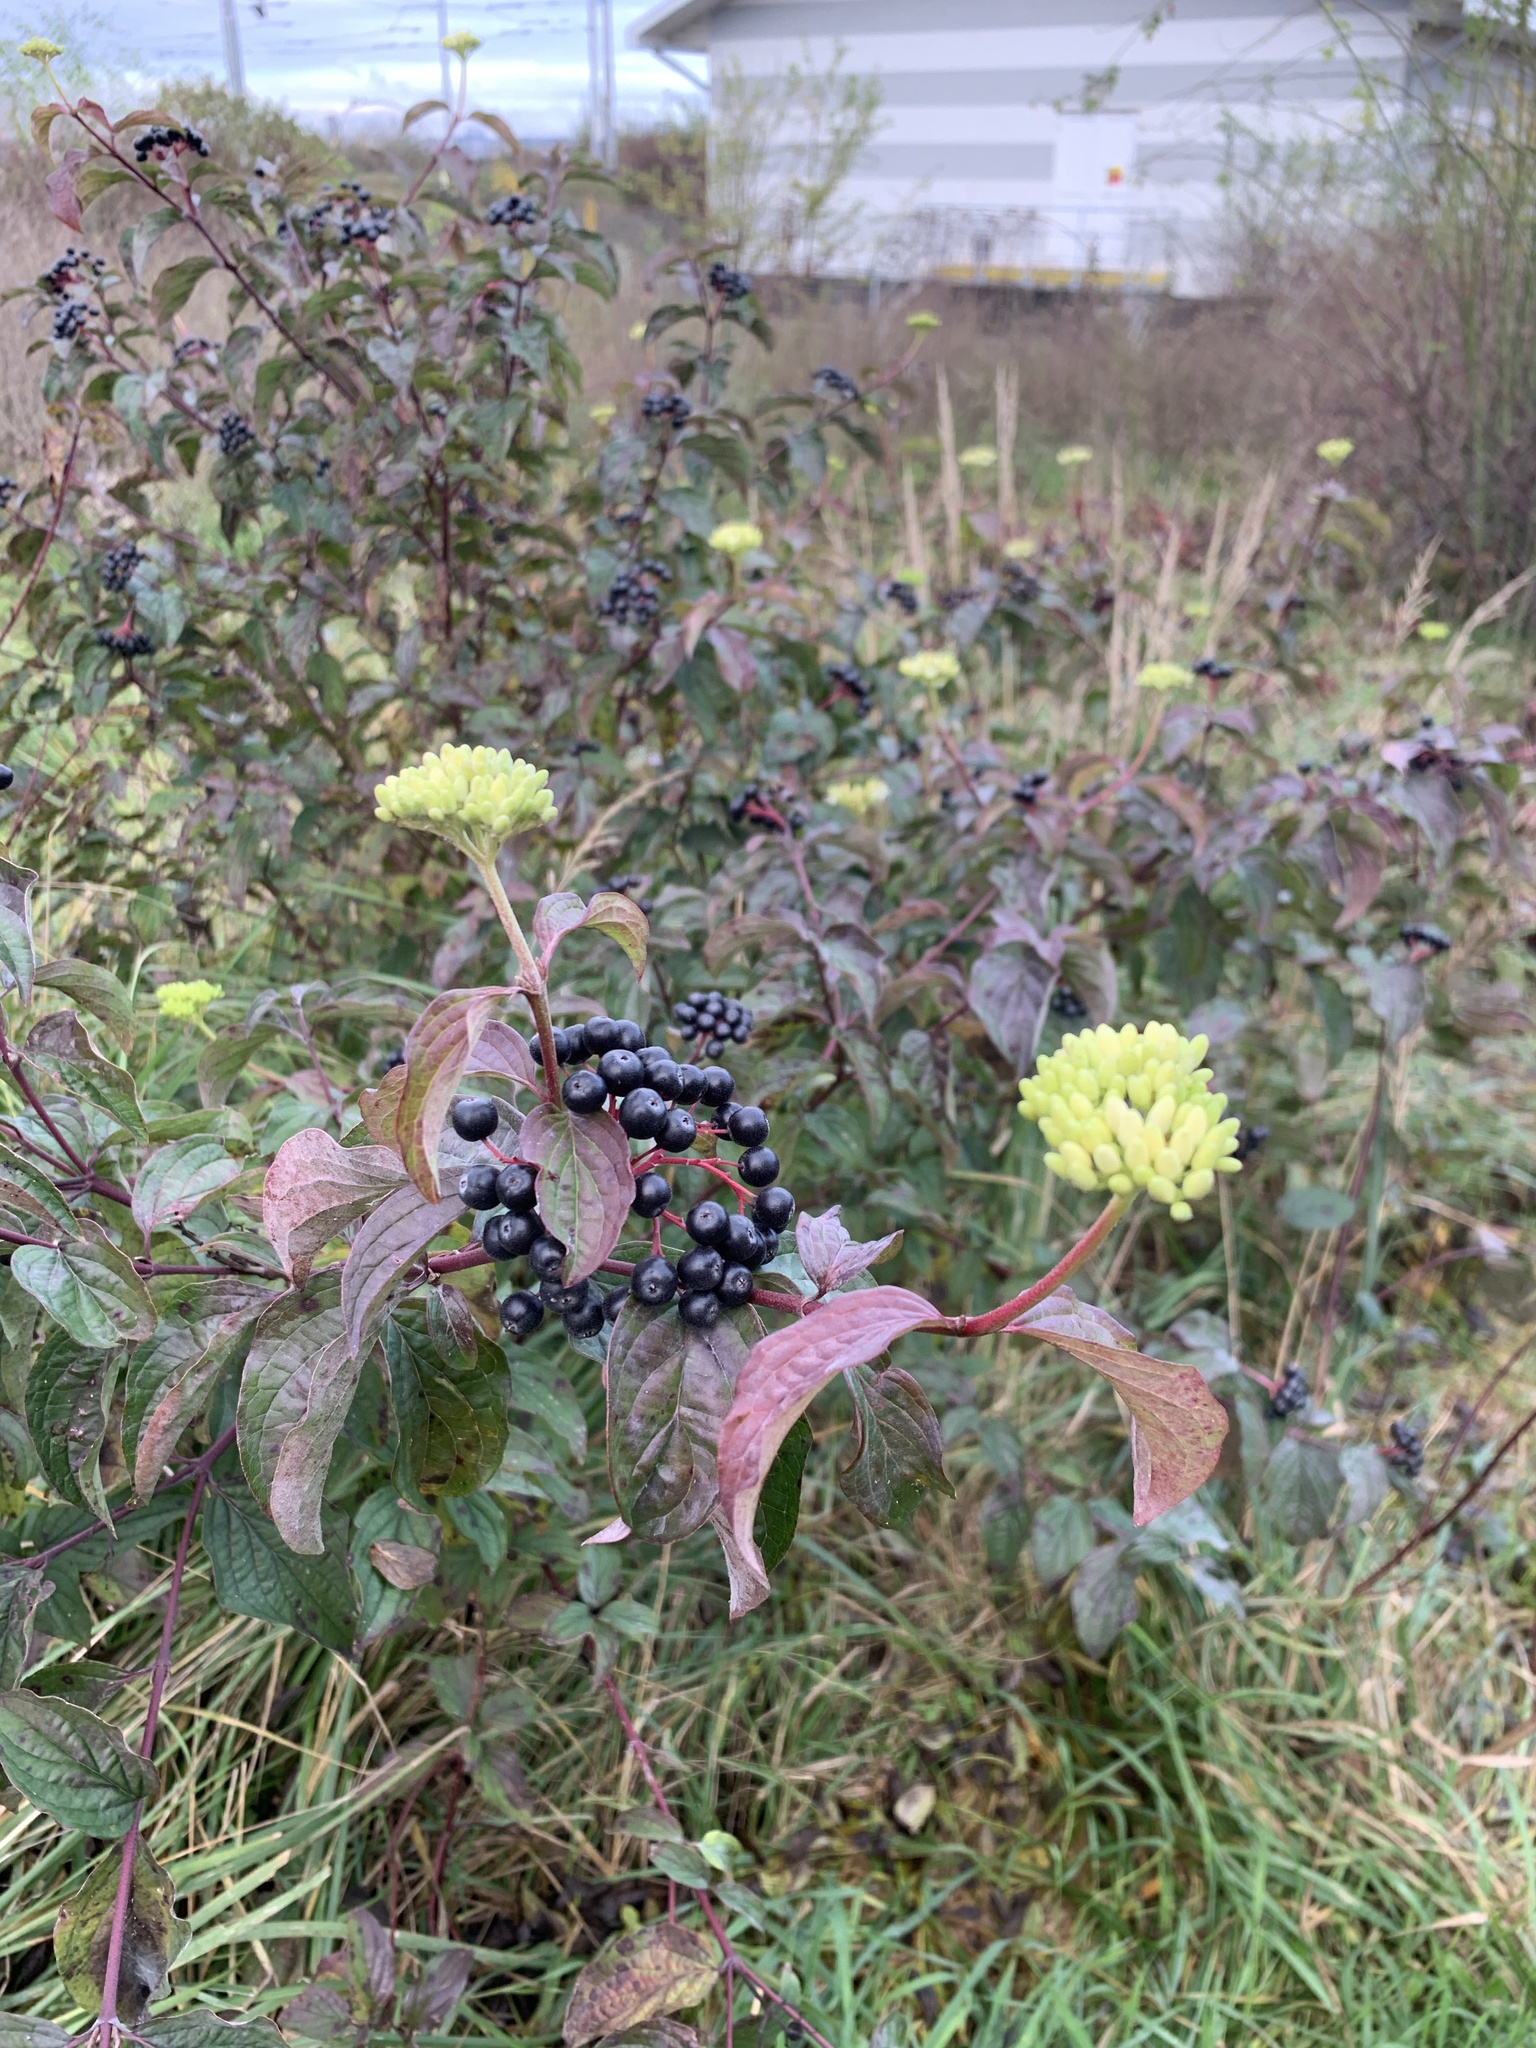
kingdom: Plantae
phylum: Tracheophyta
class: Magnoliopsida
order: Cornales
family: Cornaceae
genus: Cornus
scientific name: Cornus sanguinea
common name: Dogwood
